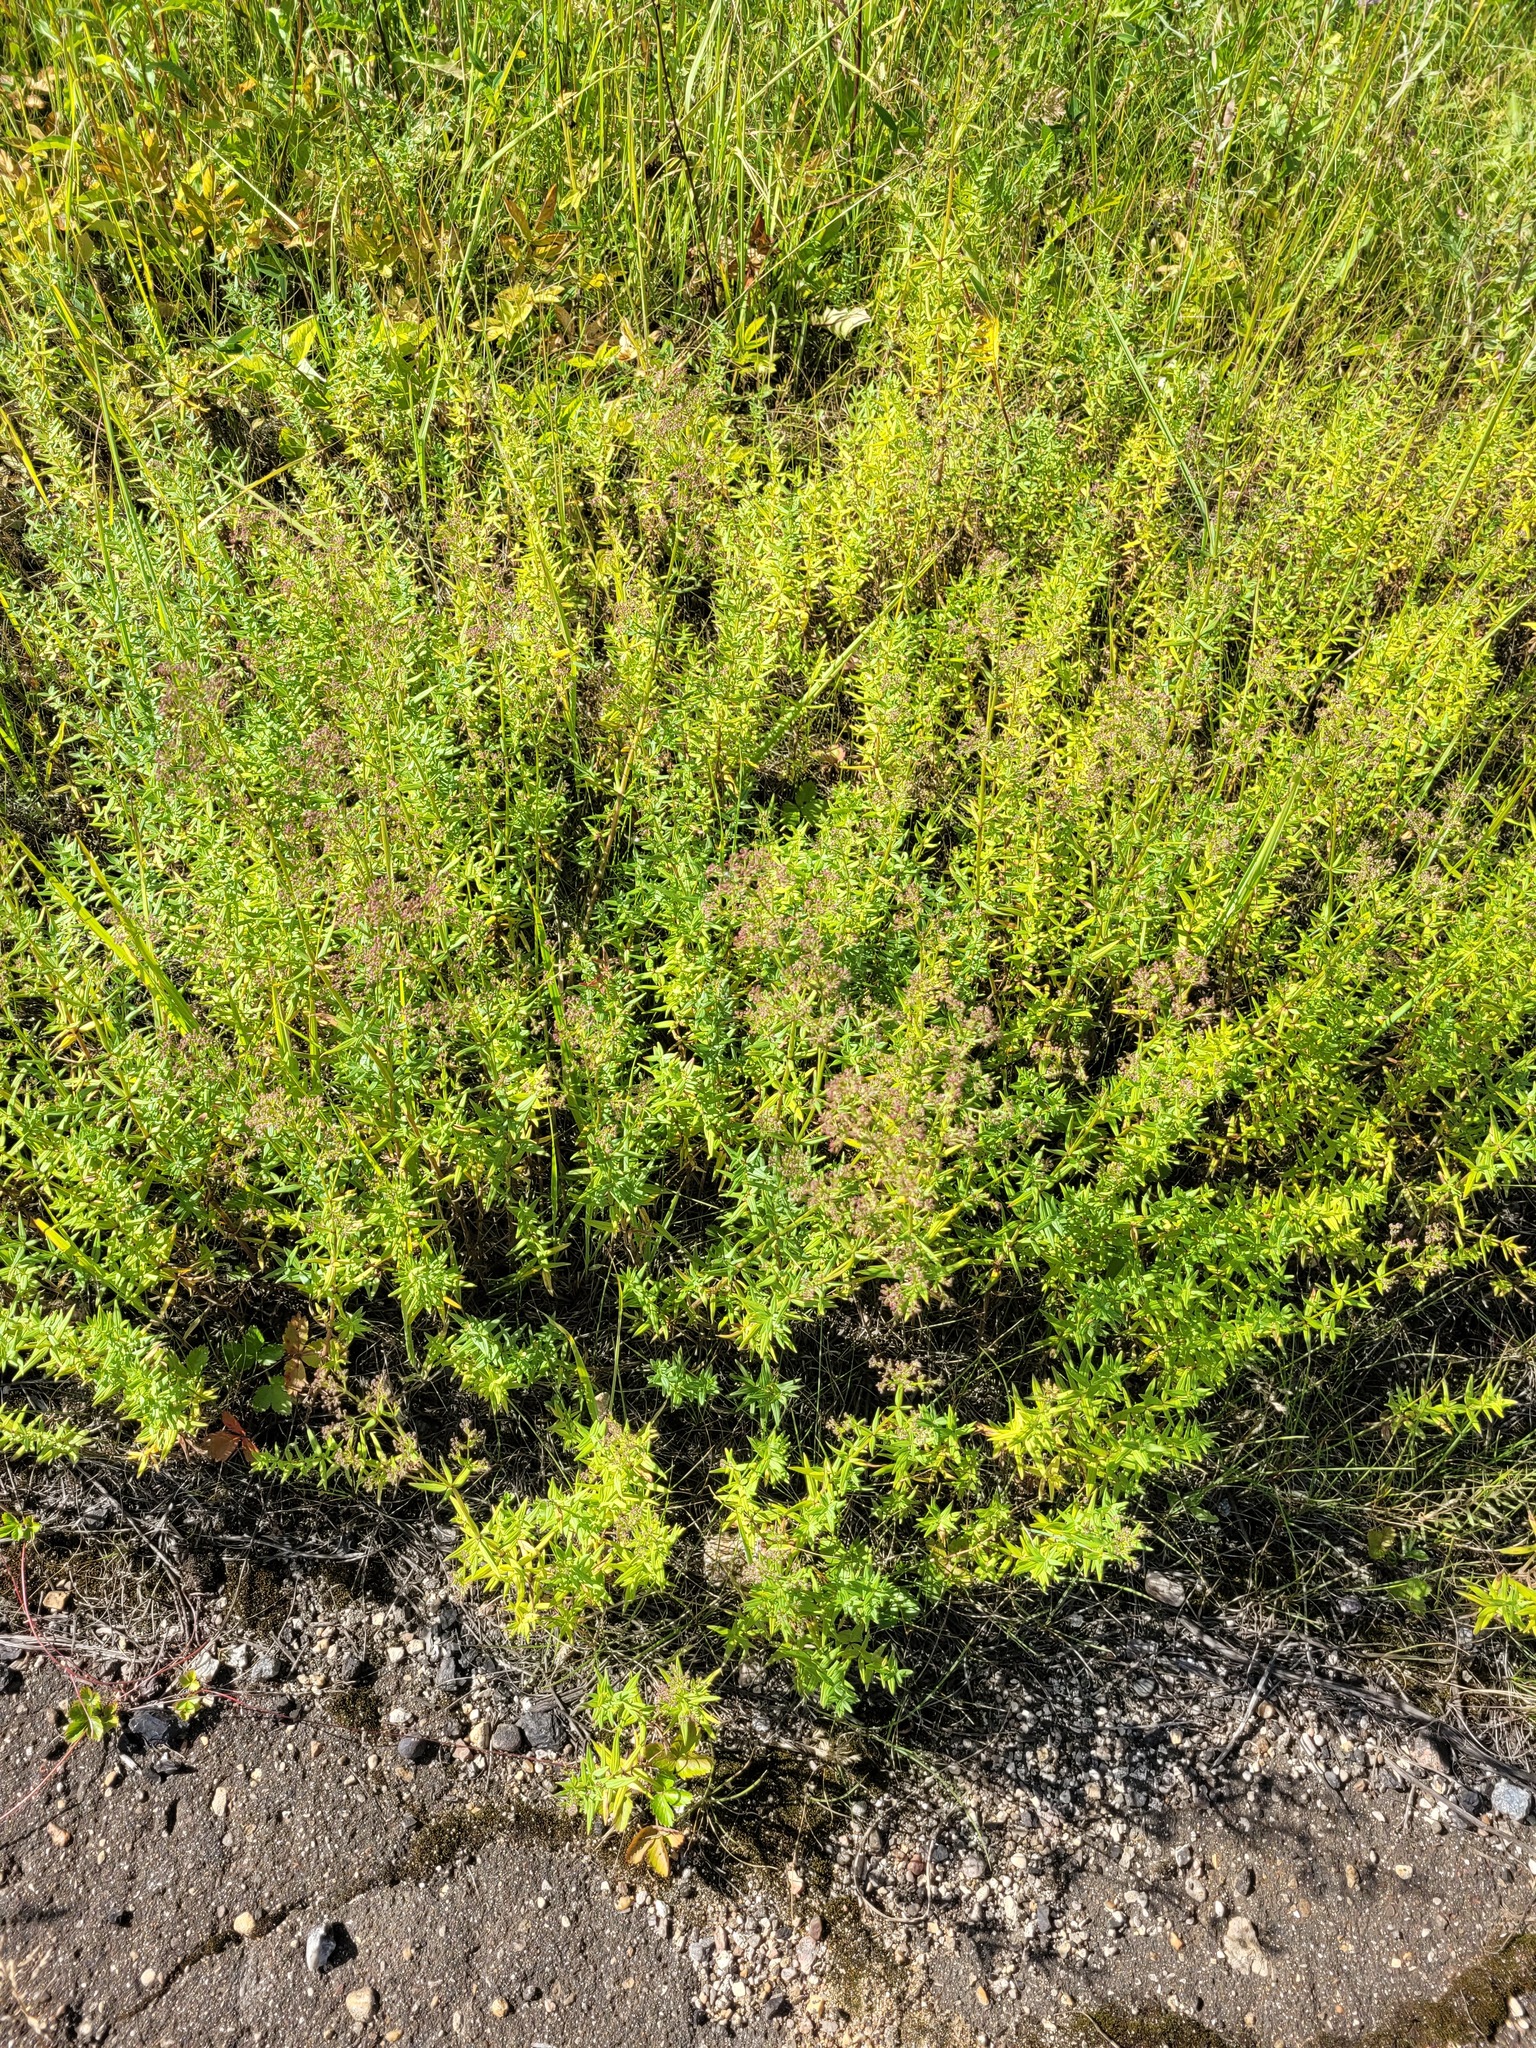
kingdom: Plantae
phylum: Tracheophyta
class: Magnoliopsida
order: Gentianales
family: Rubiaceae
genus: Galium
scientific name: Galium boreale
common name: Northern bedstraw
